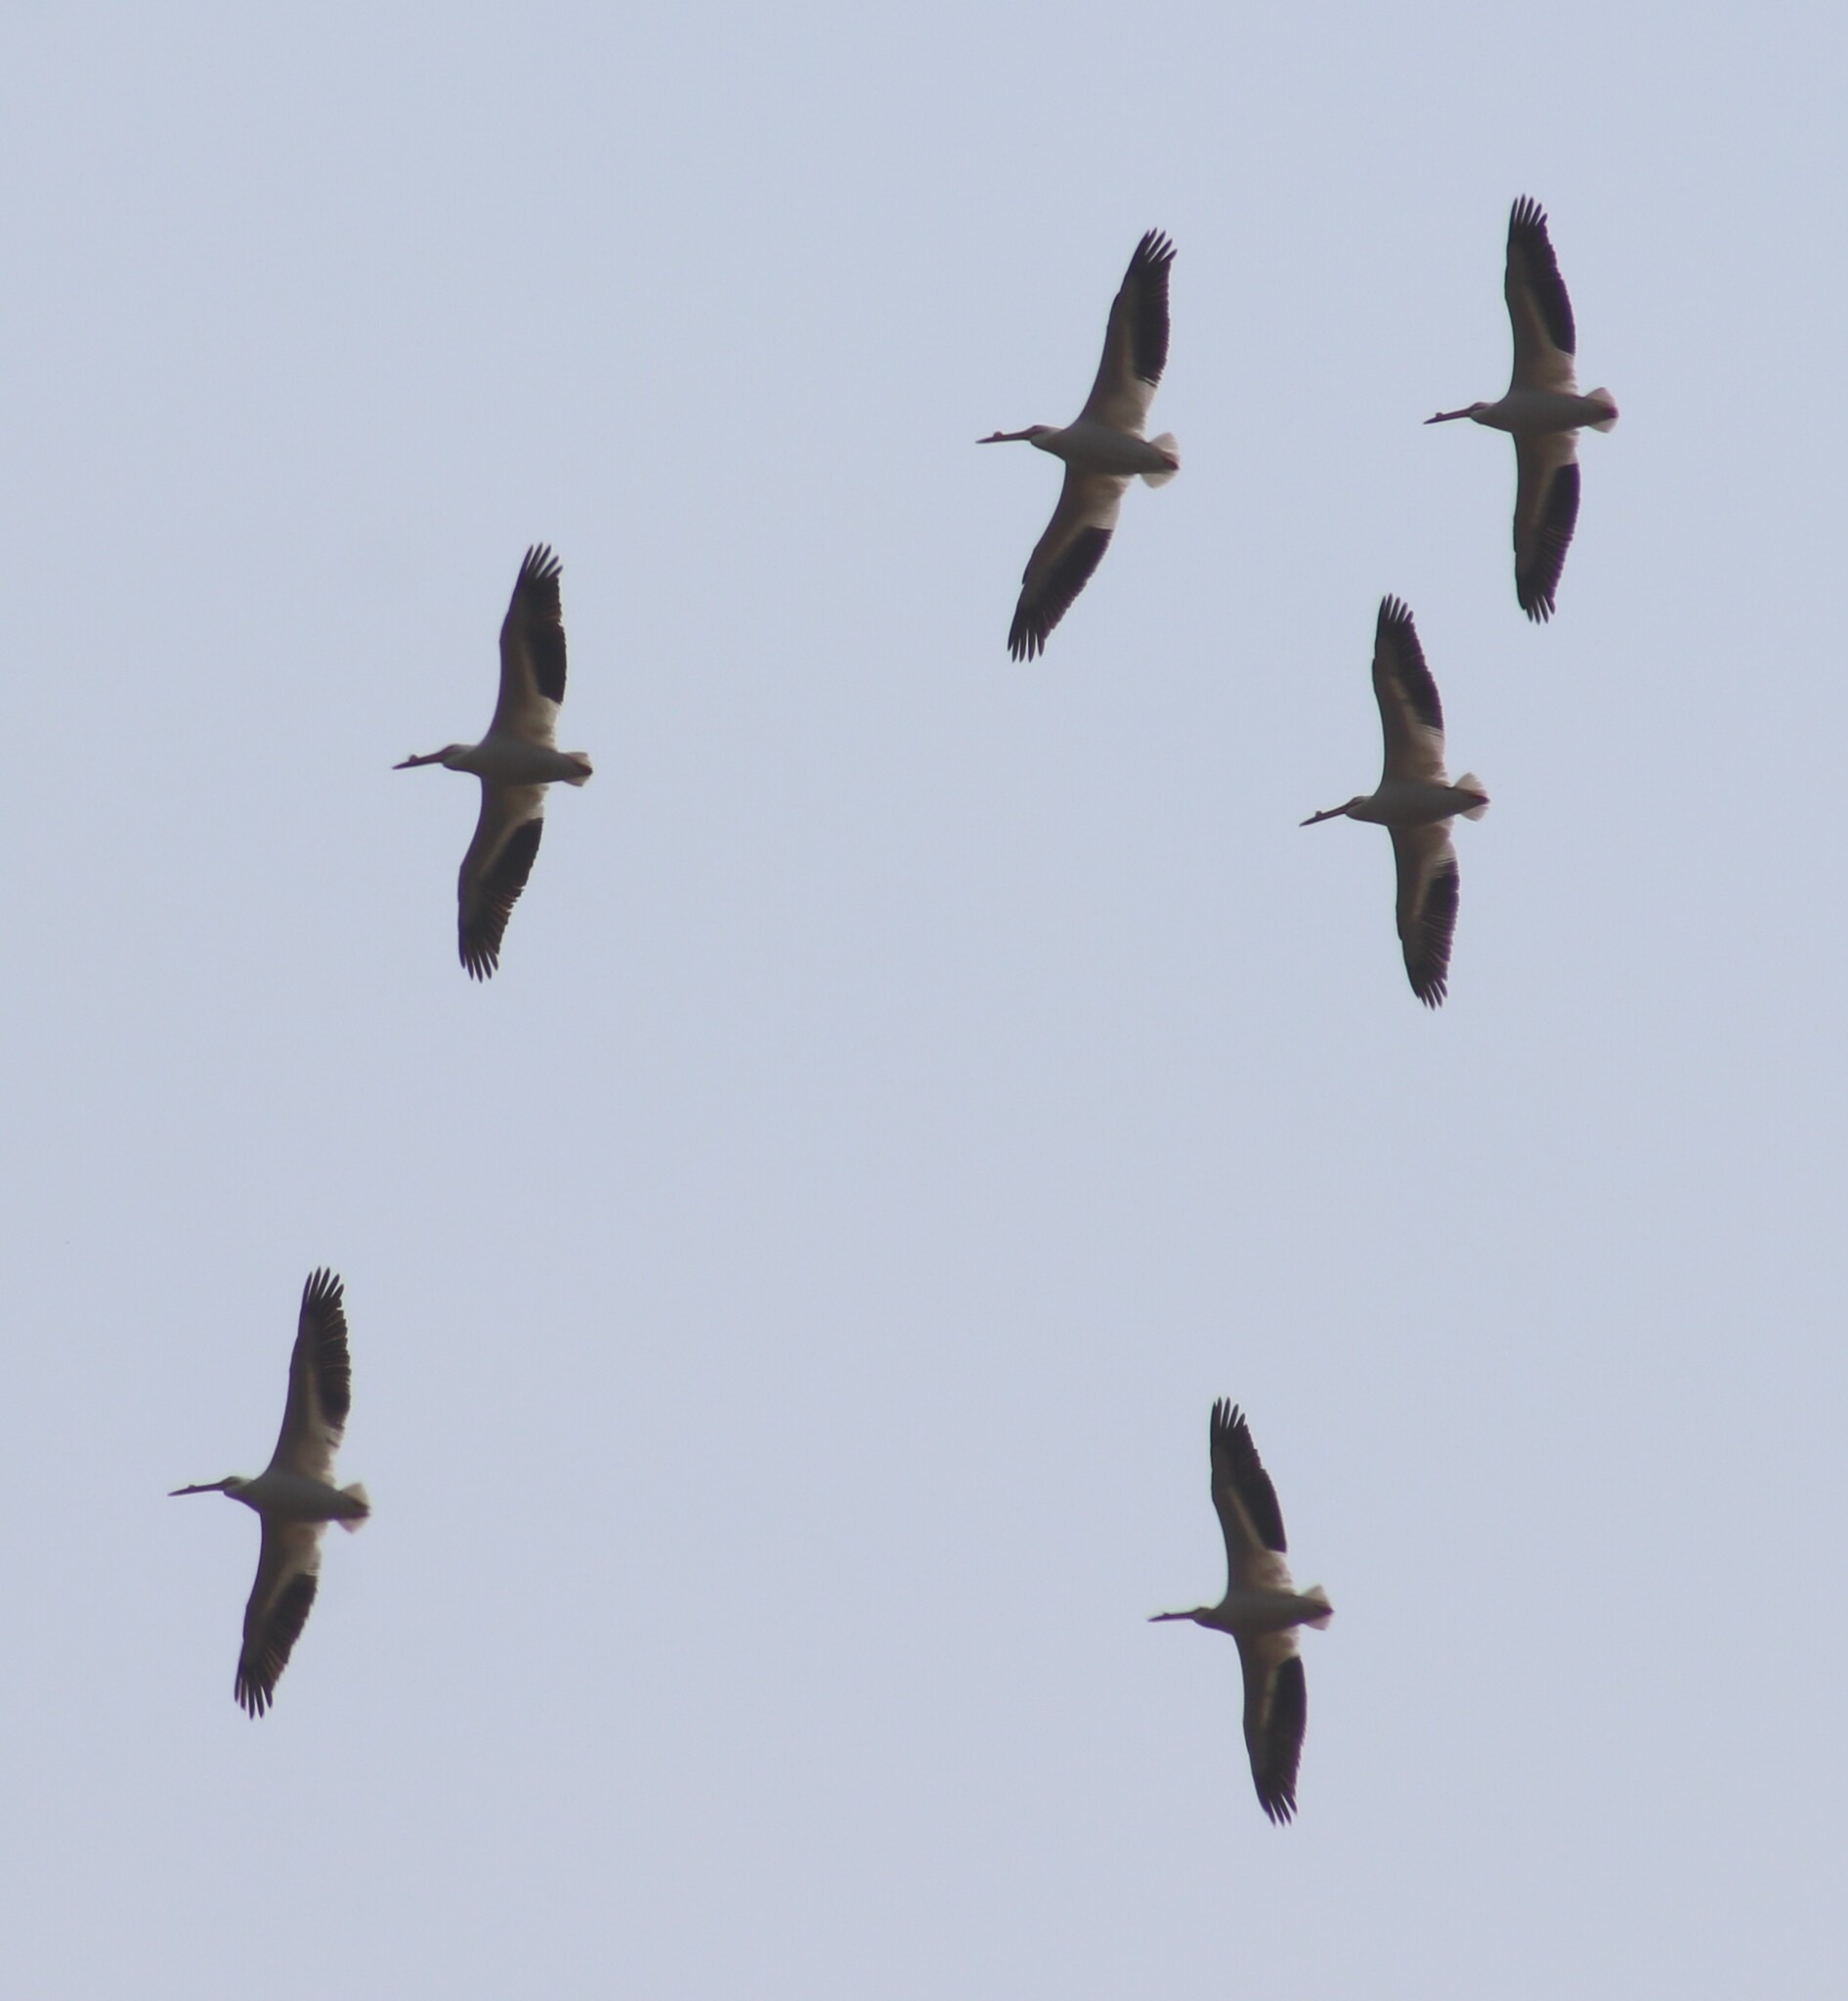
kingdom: Animalia
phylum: Chordata
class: Aves
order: Pelecaniformes
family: Pelecanidae
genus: Pelecanus
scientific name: Pelecanus erythrorhynchos
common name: American white pelican
